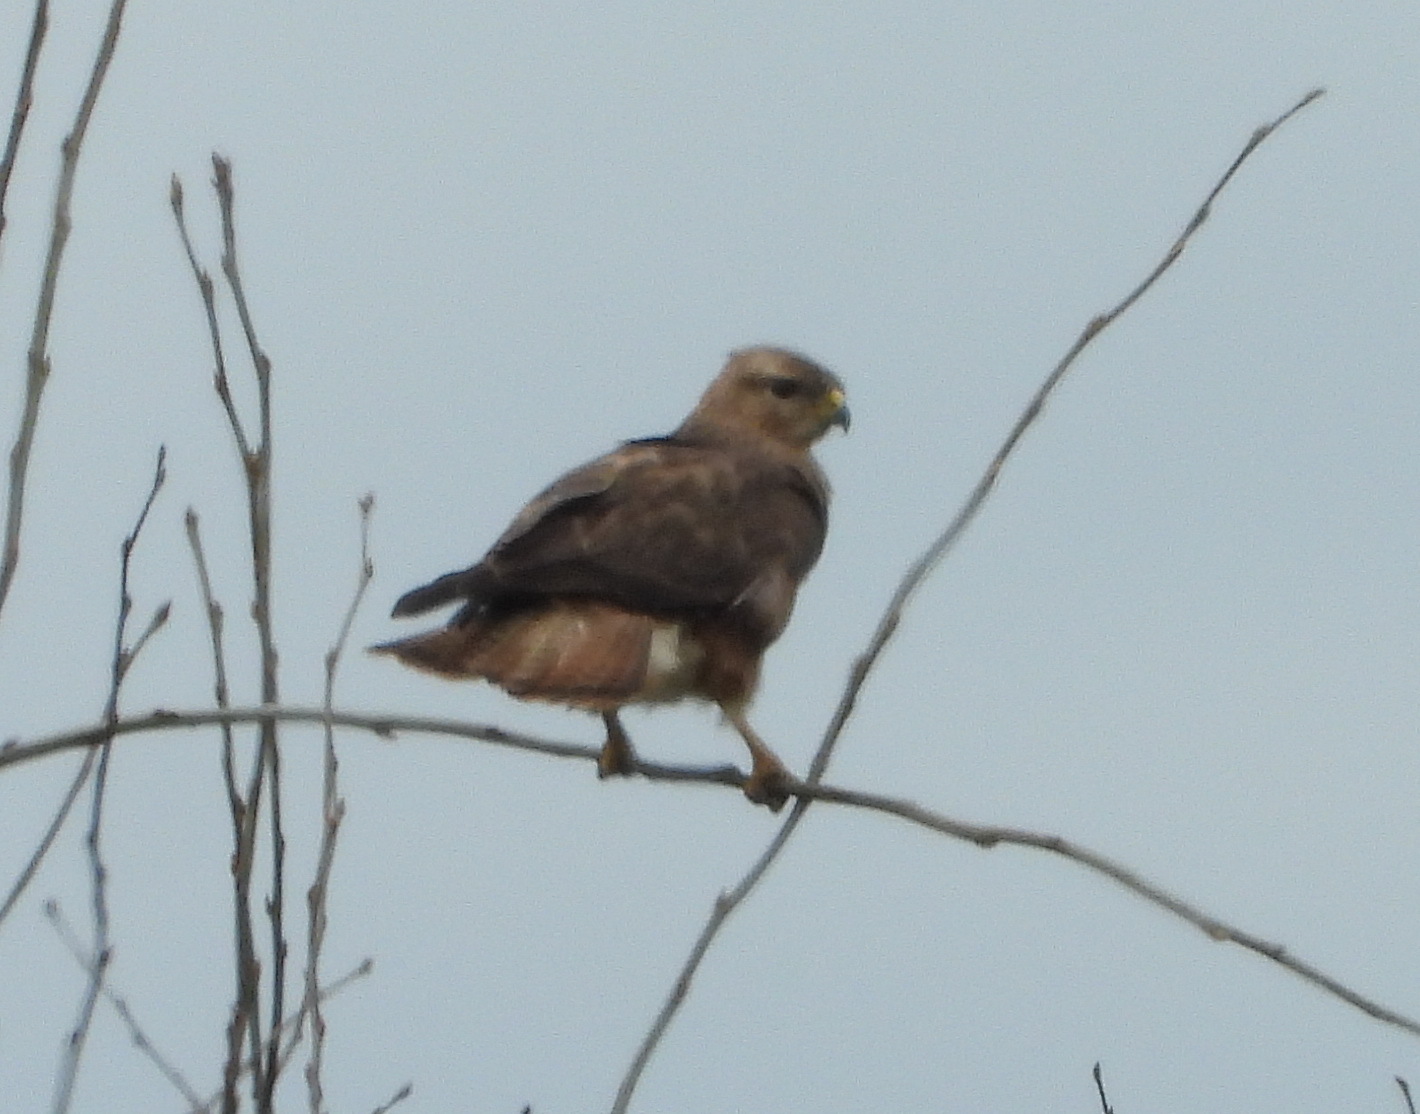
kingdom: Animalia
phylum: Chordata
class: Aves
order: Accipitriformes
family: Accipitridae
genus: Buteo
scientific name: Buteo buteo
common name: Common buzzard
